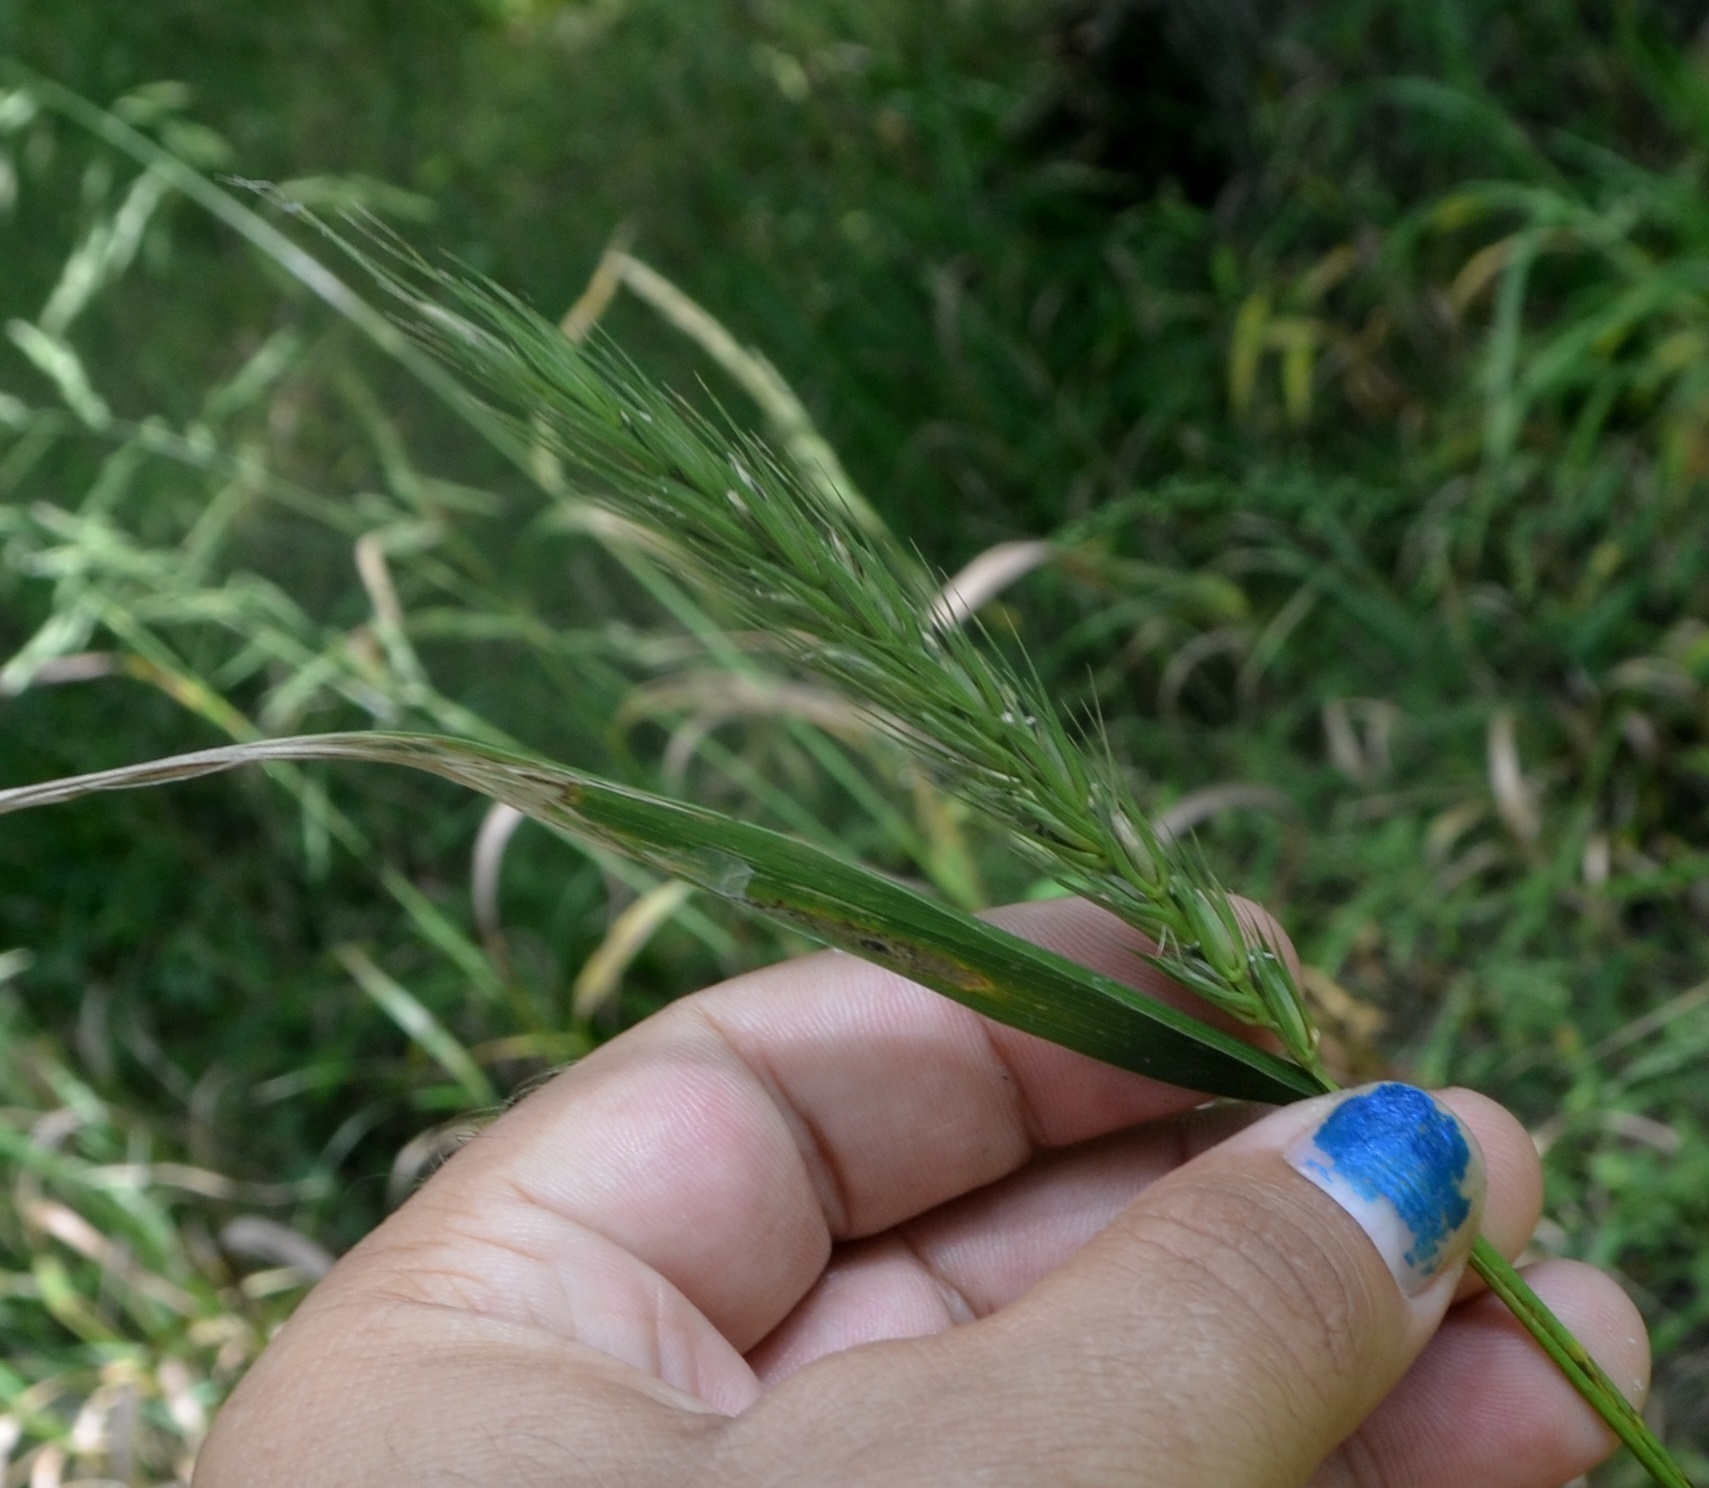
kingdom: Plantae
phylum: Tracheophyta
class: Liliopsida
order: Poales
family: Poaceae
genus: Elymus
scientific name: Elymus virginicus
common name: Common eastern wildrye
